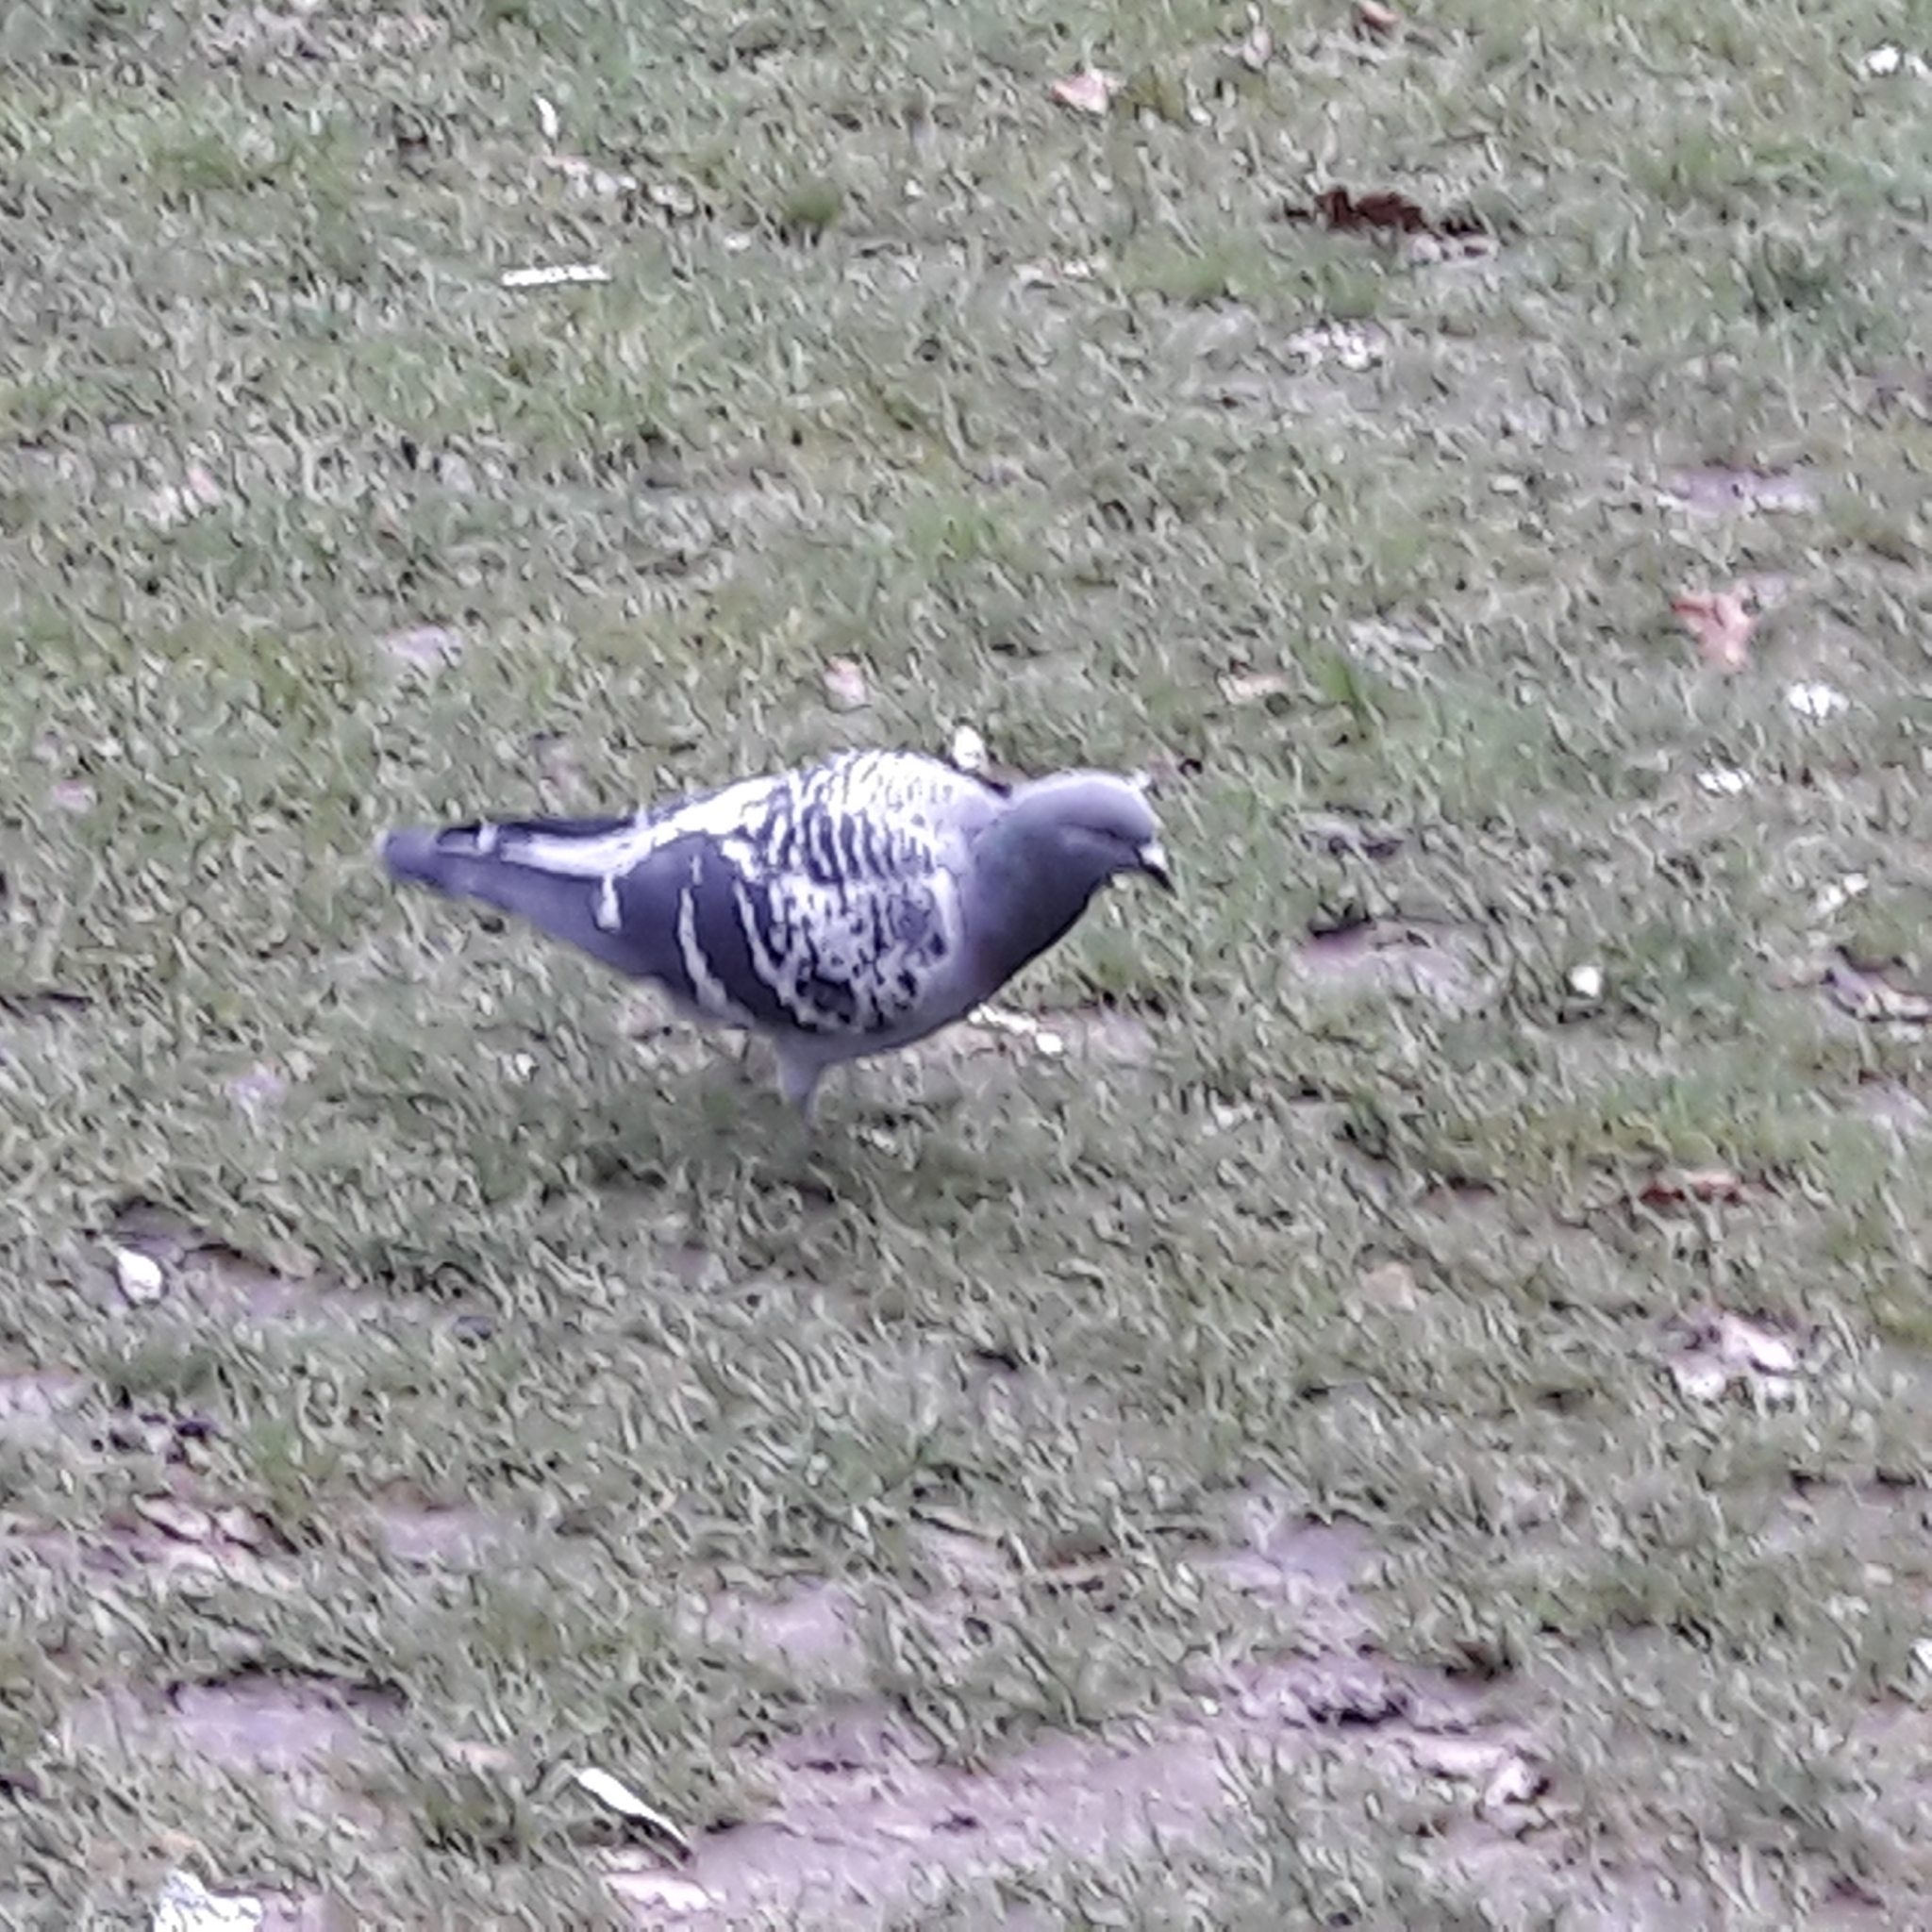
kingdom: Animalia
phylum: Chordata
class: Aves
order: Columbiformes
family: Columbidae
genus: Columba
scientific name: Columba livia
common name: Rock pigeon
